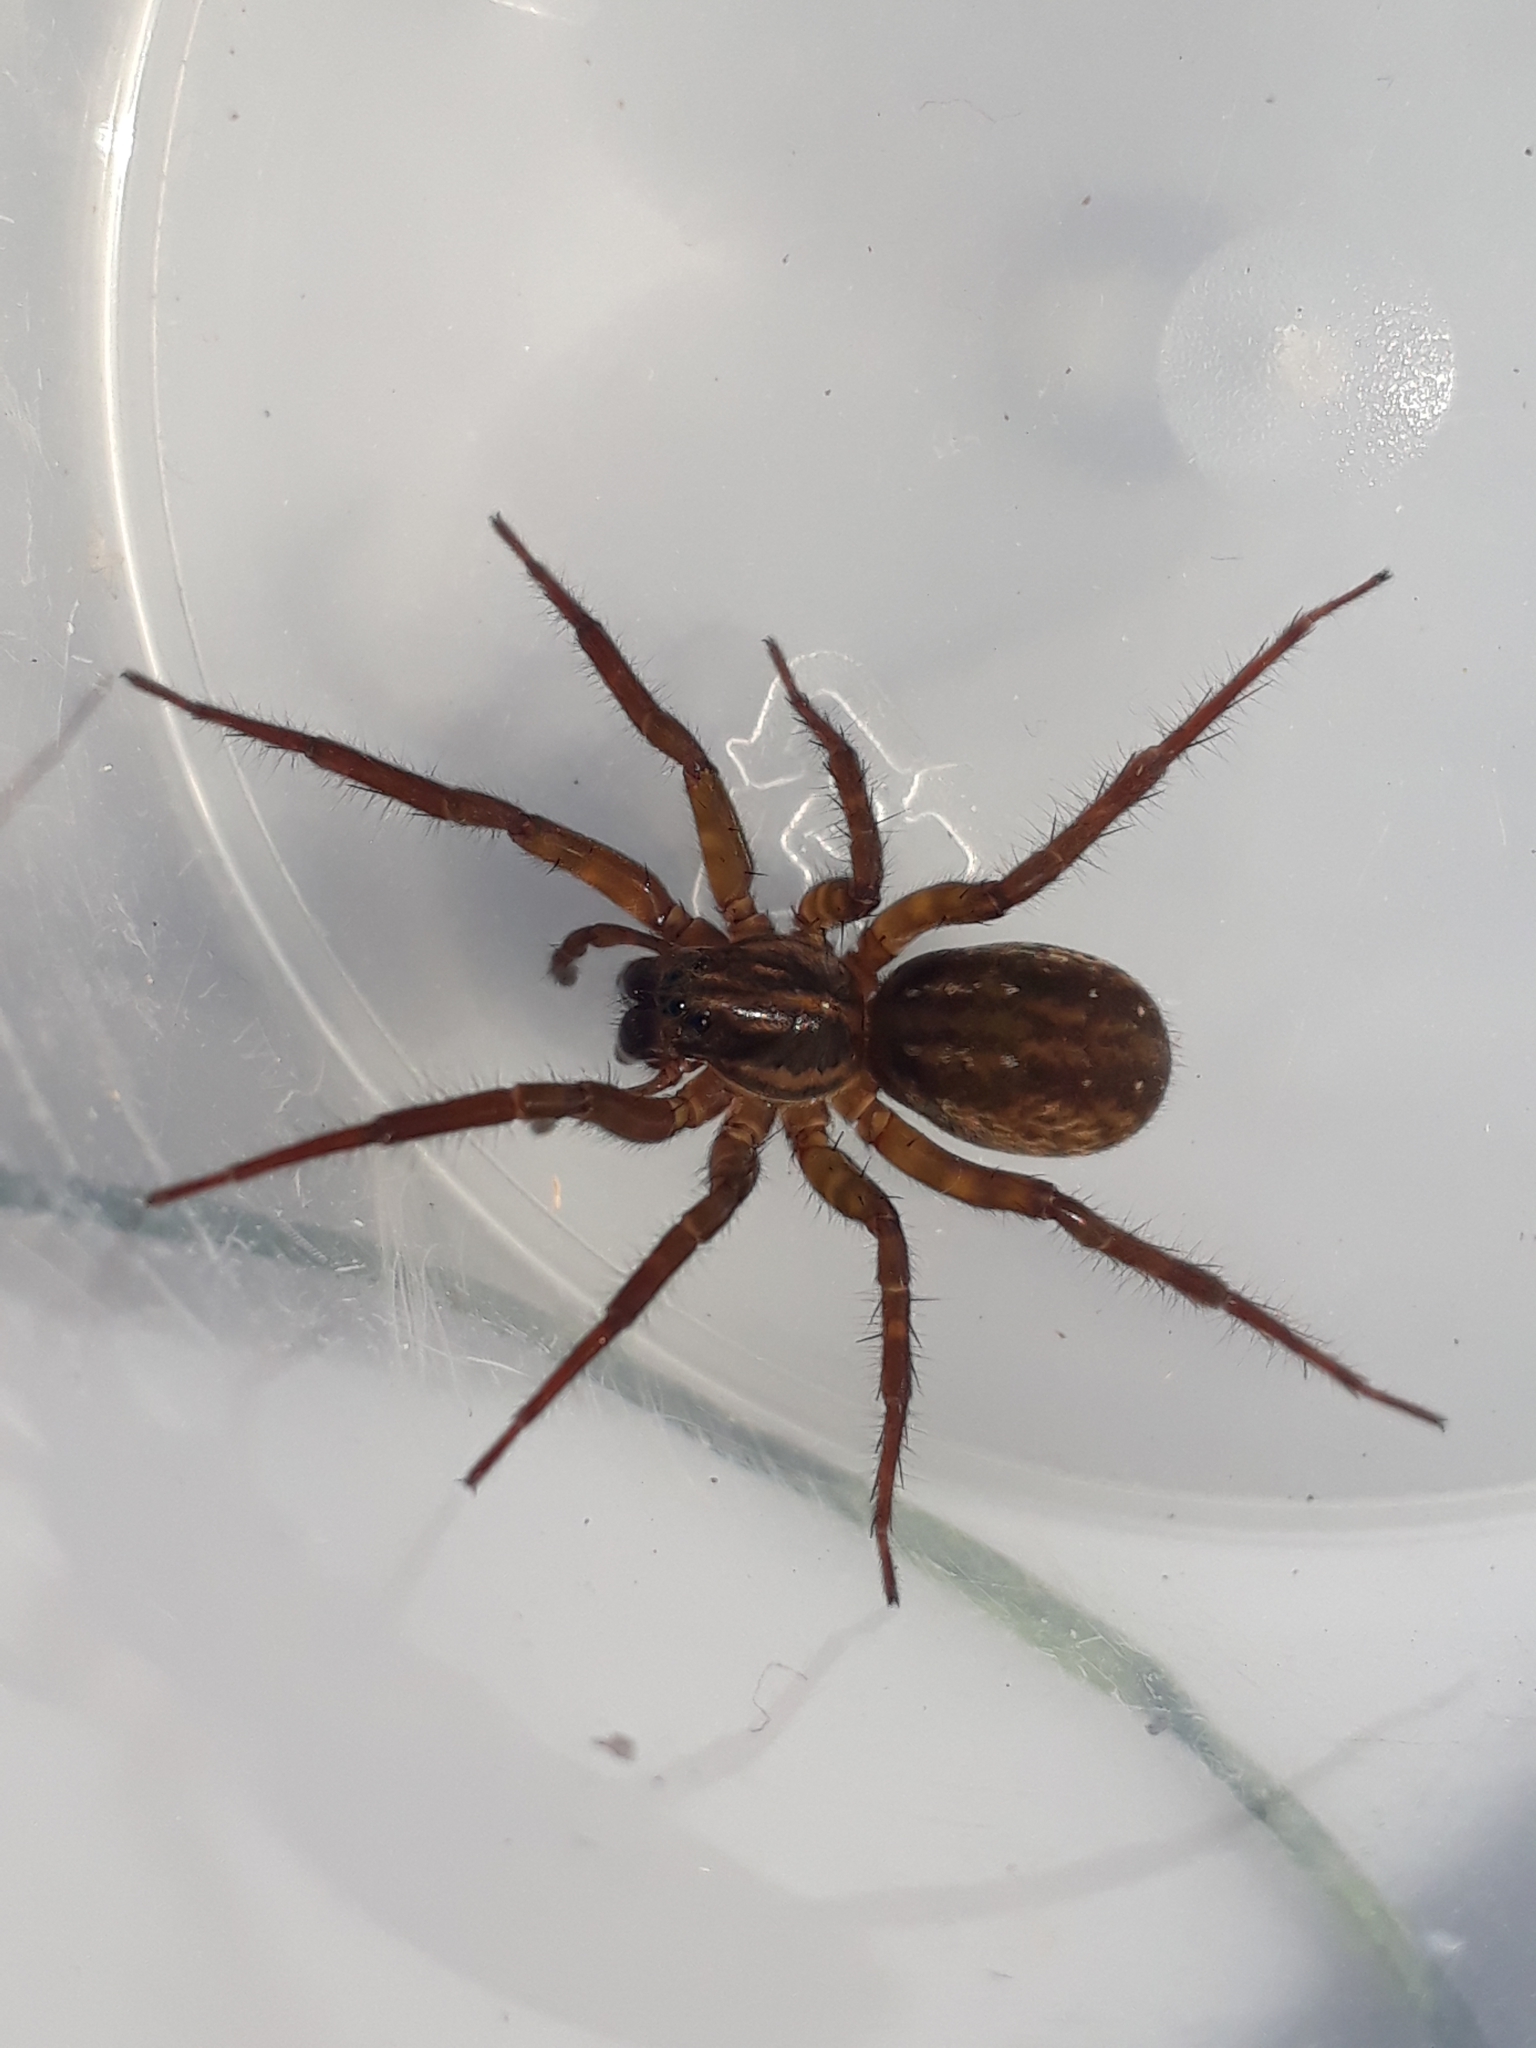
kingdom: Animalia
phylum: Arthropoda
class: Arachnida
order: Araneae
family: Lycosidae
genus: Allotrochosina
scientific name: Allotrochosina schauinslandi
